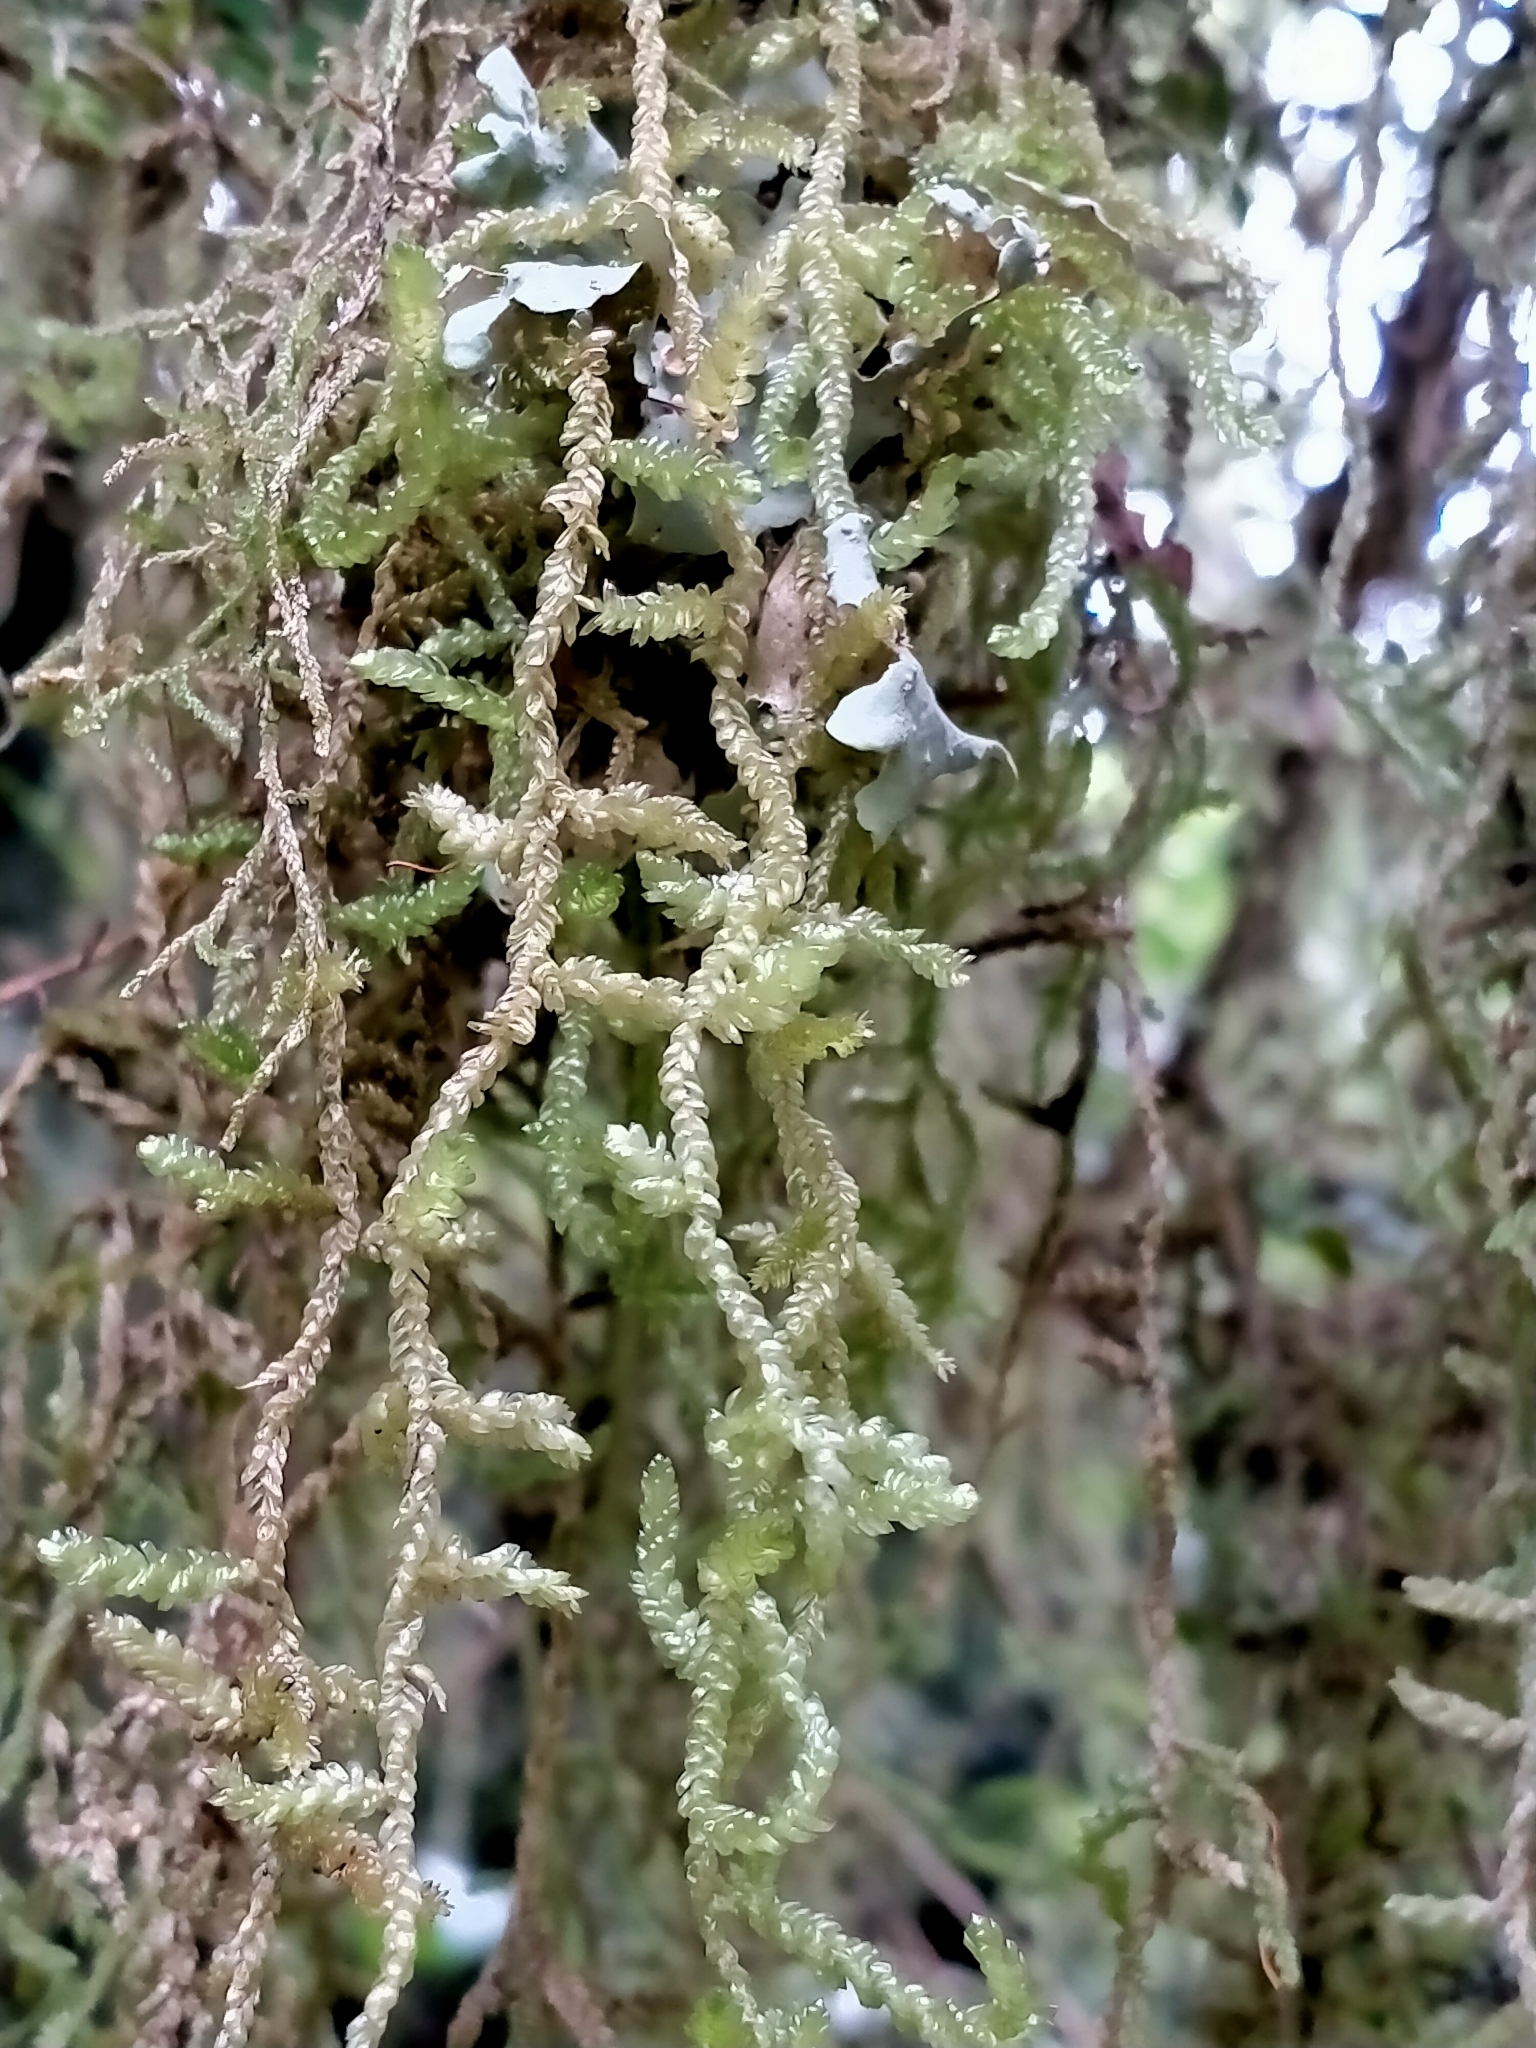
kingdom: Plantae
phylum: Bryophyta
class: Bryopsida
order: Hypnales
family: Lembophyllaceae
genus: Weymouthia
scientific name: Weymouthia cochlearifolia
